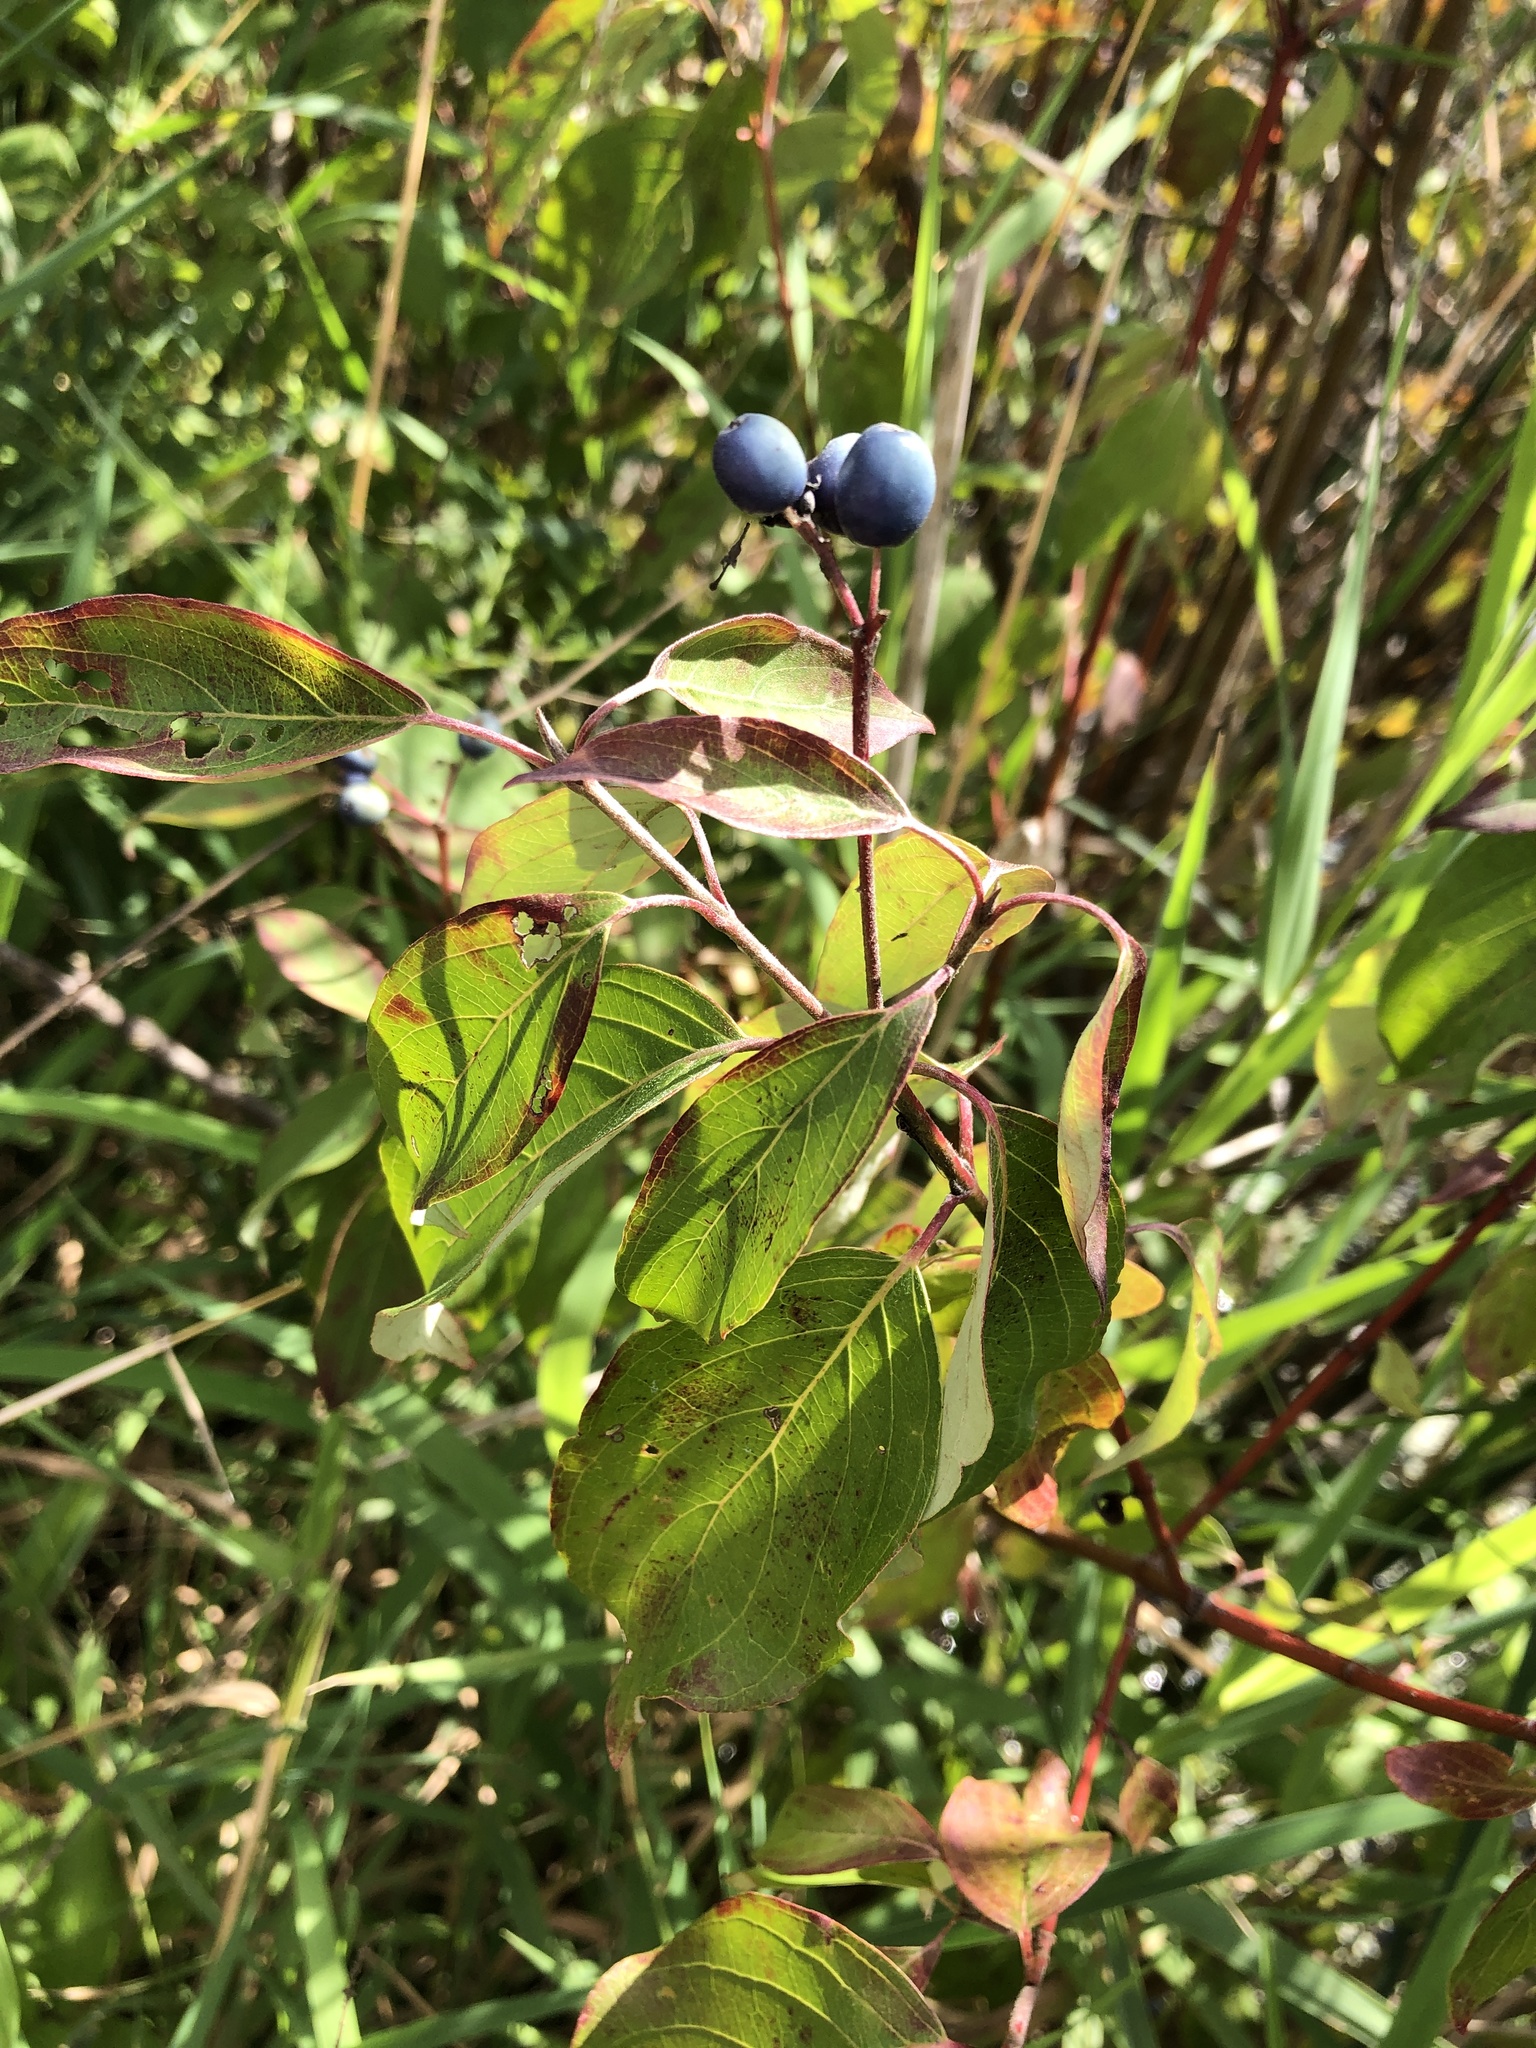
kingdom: Plantae
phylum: Tracheophyta
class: Magnoliopsida
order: Cornales
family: Cornaceae
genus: Cornus
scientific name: Cornus obliqua
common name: Pale dogwood
